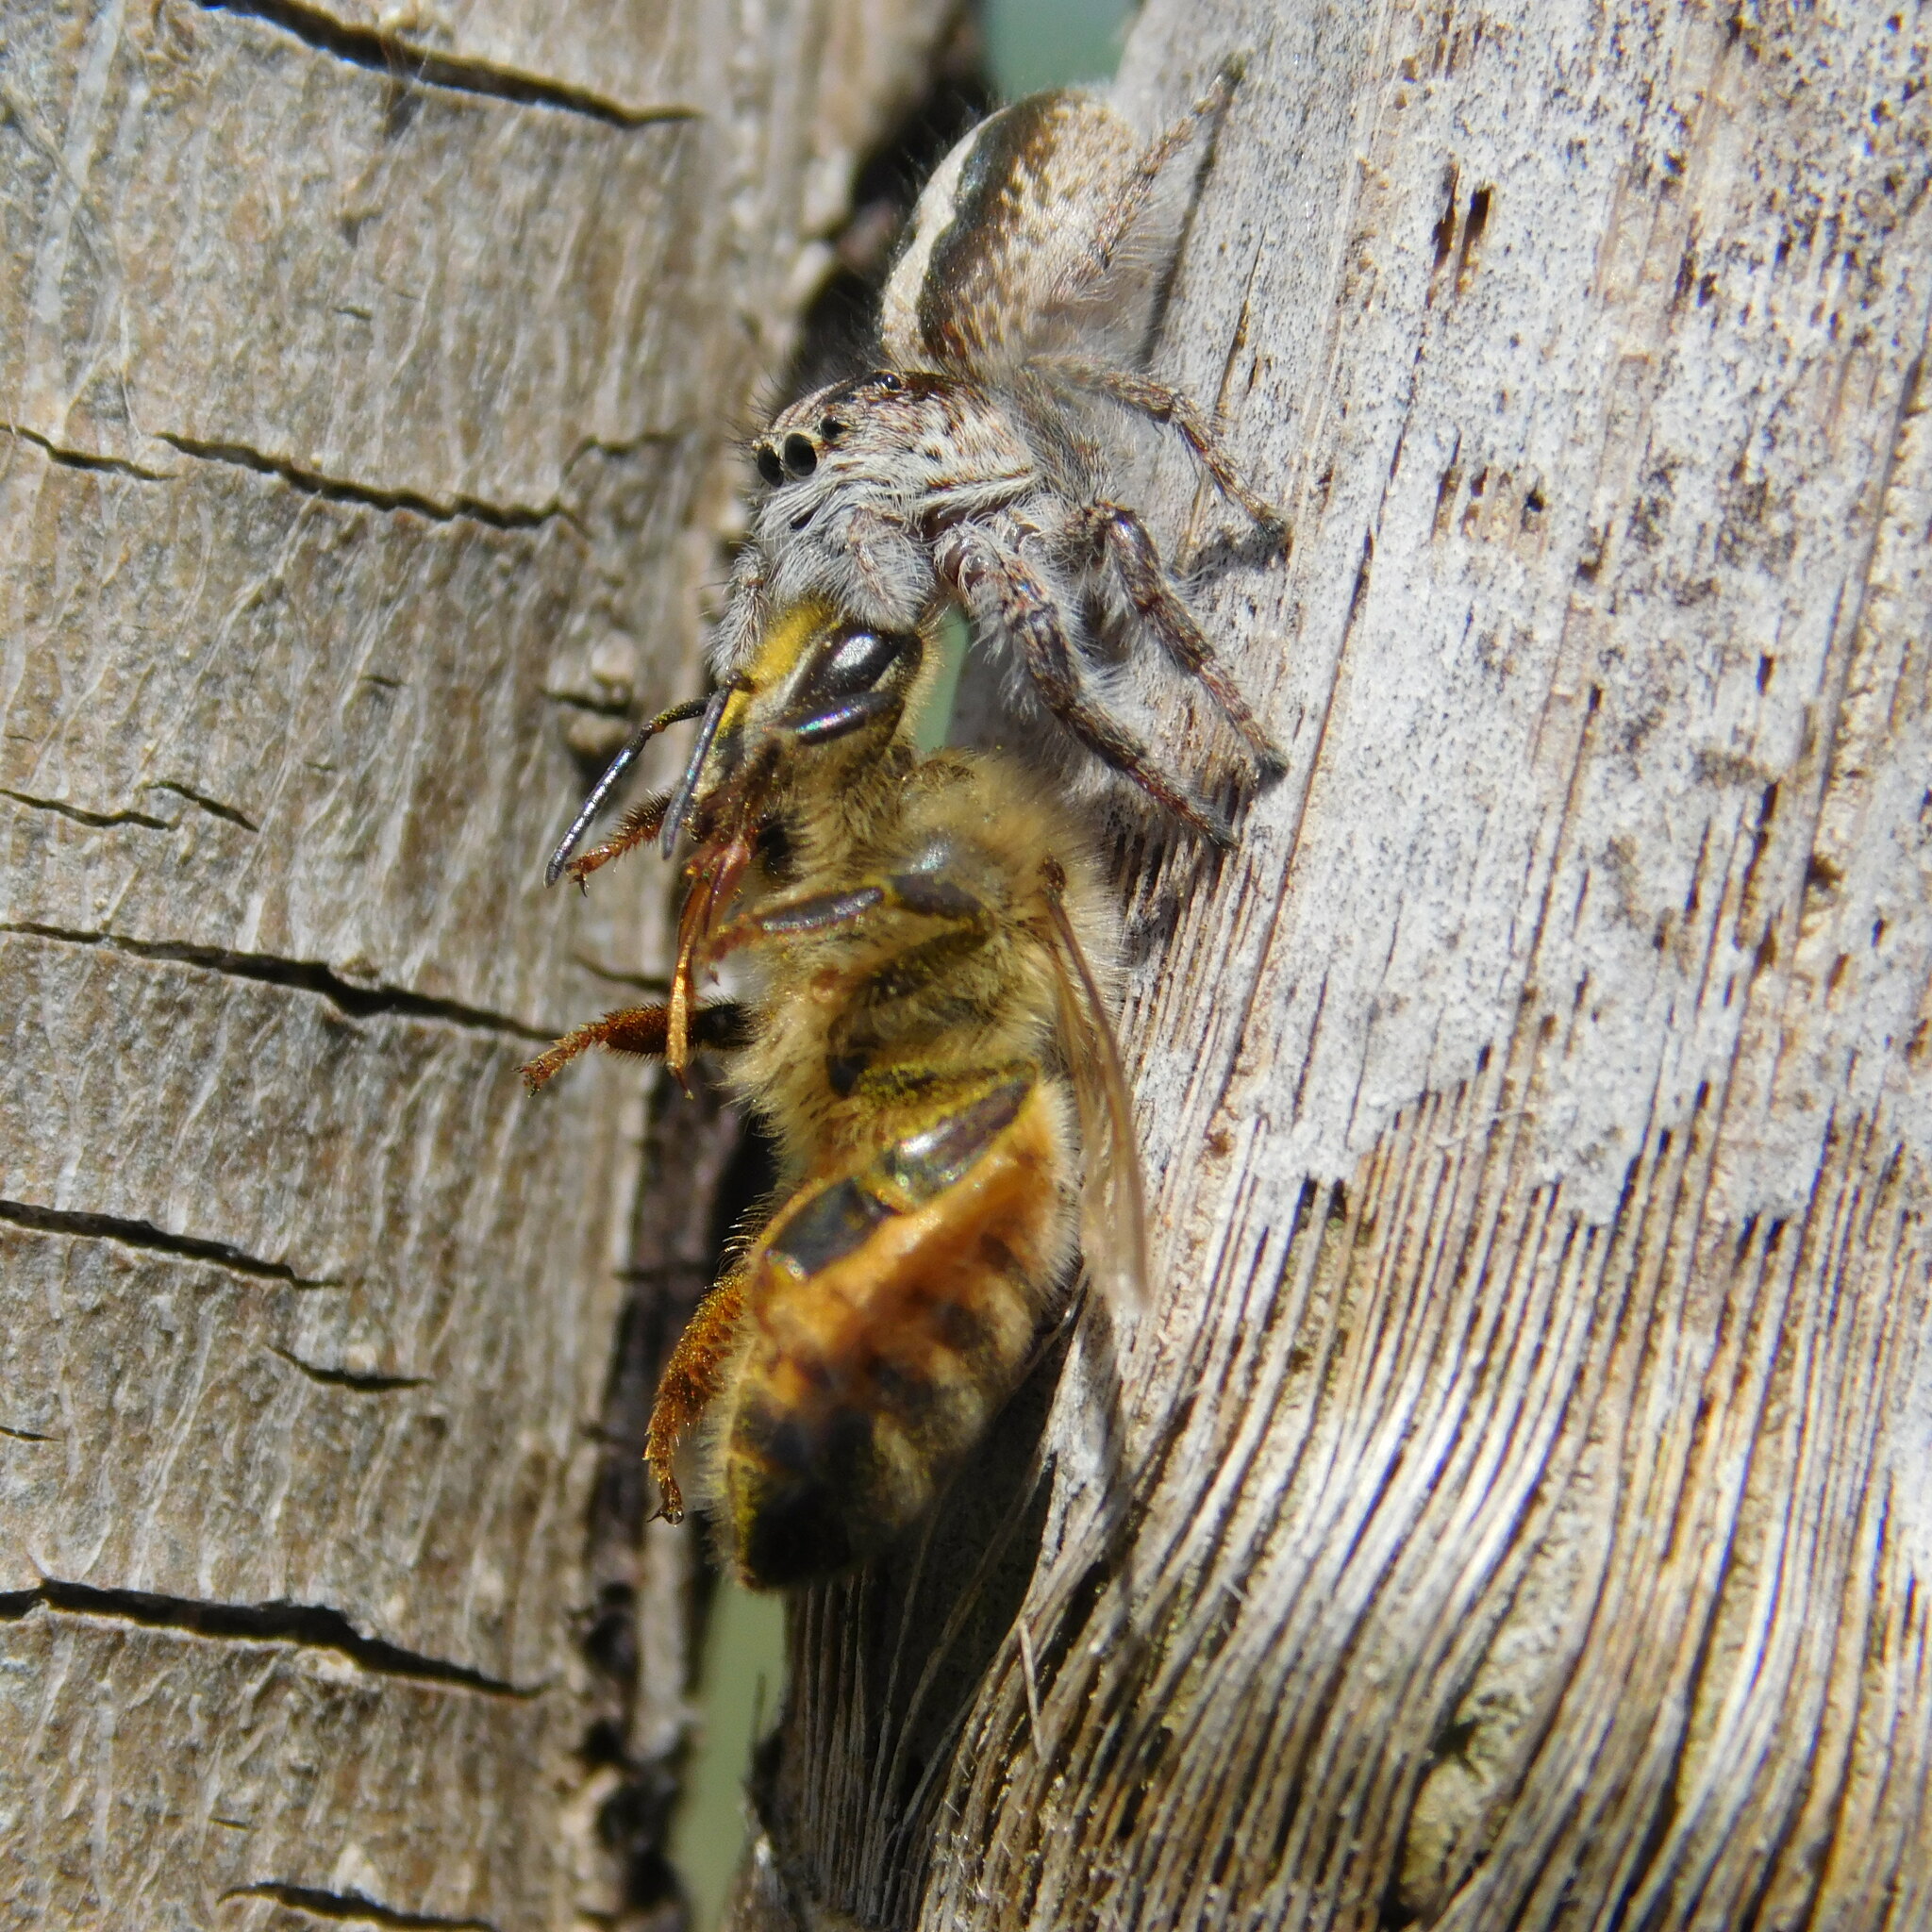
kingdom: Animalia
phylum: Arthropoda
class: Insecta
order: Hymenoptera
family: Apidae
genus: Apis
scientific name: Apis mellifera
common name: Honey bee
